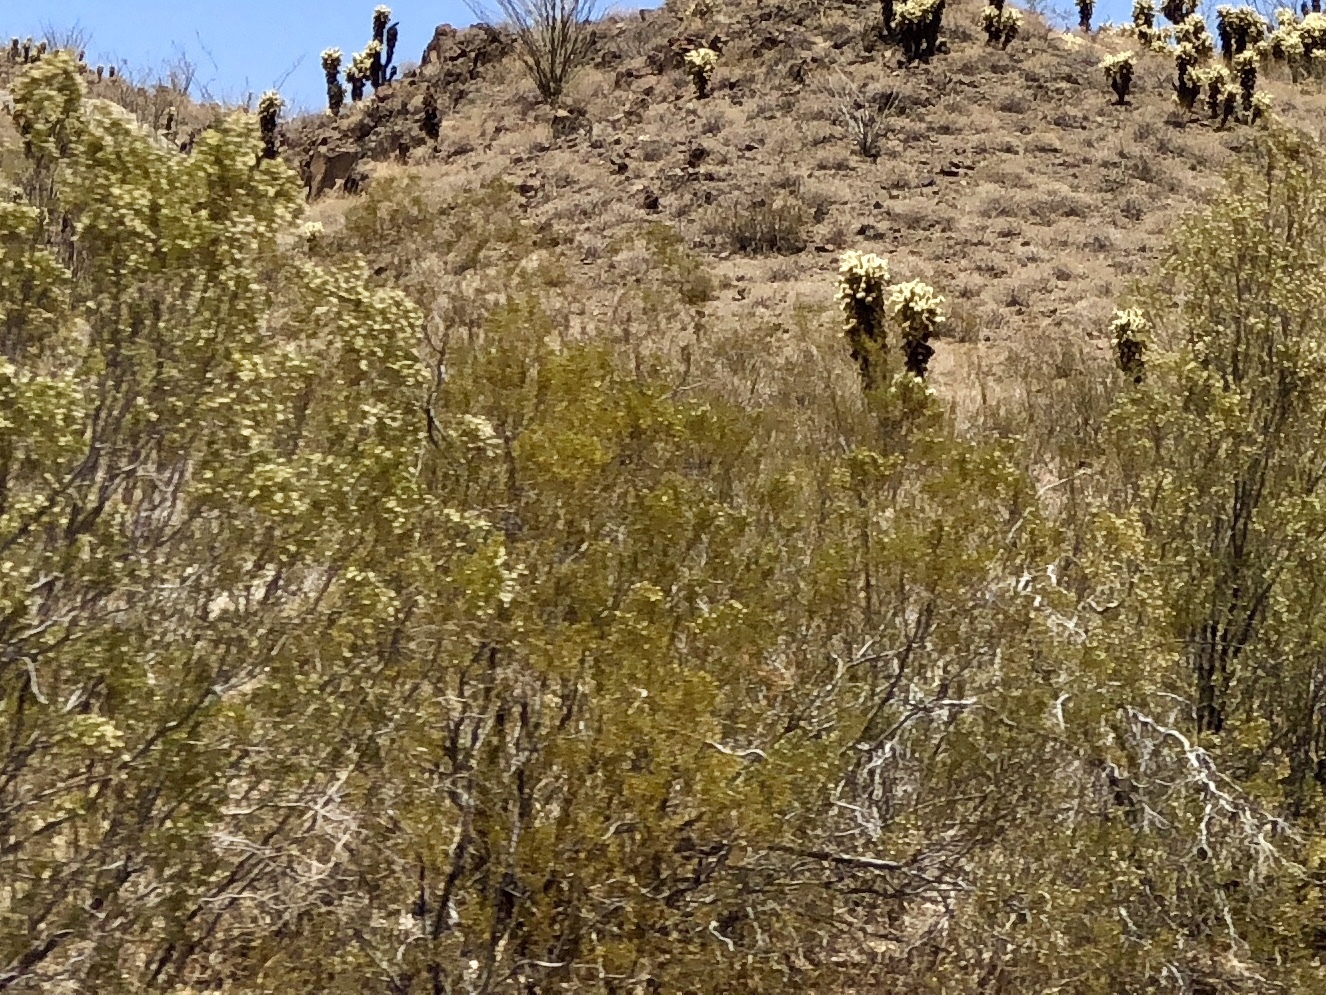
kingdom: Plantae
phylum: Tracheophyta
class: Magnoliopsida
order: Zygophyllales
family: Zygophyllaceae
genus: Larrea
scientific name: Larrea tridentata
